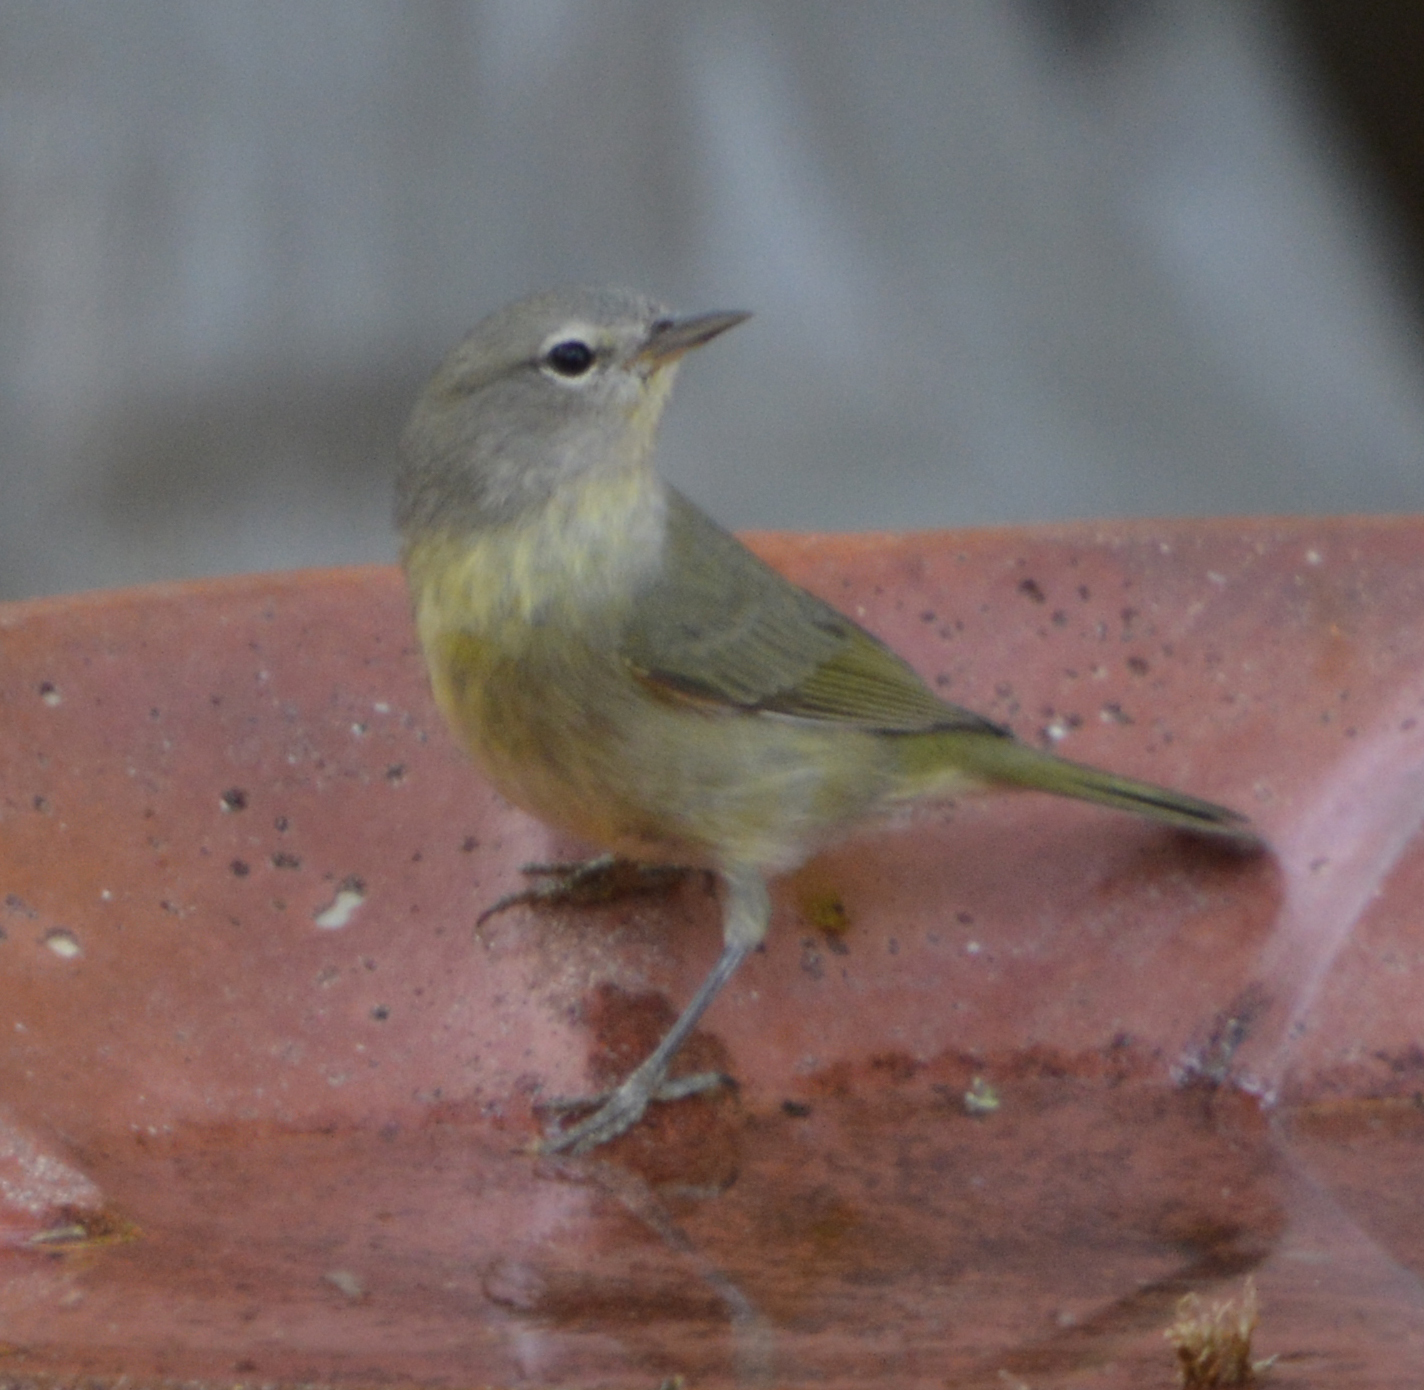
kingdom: Animalia
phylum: Chordata
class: Aves
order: Passeriformes
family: Parulidae
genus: Leiothlypis
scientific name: Leiothlypis celata
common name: Orange-crowned warbler
